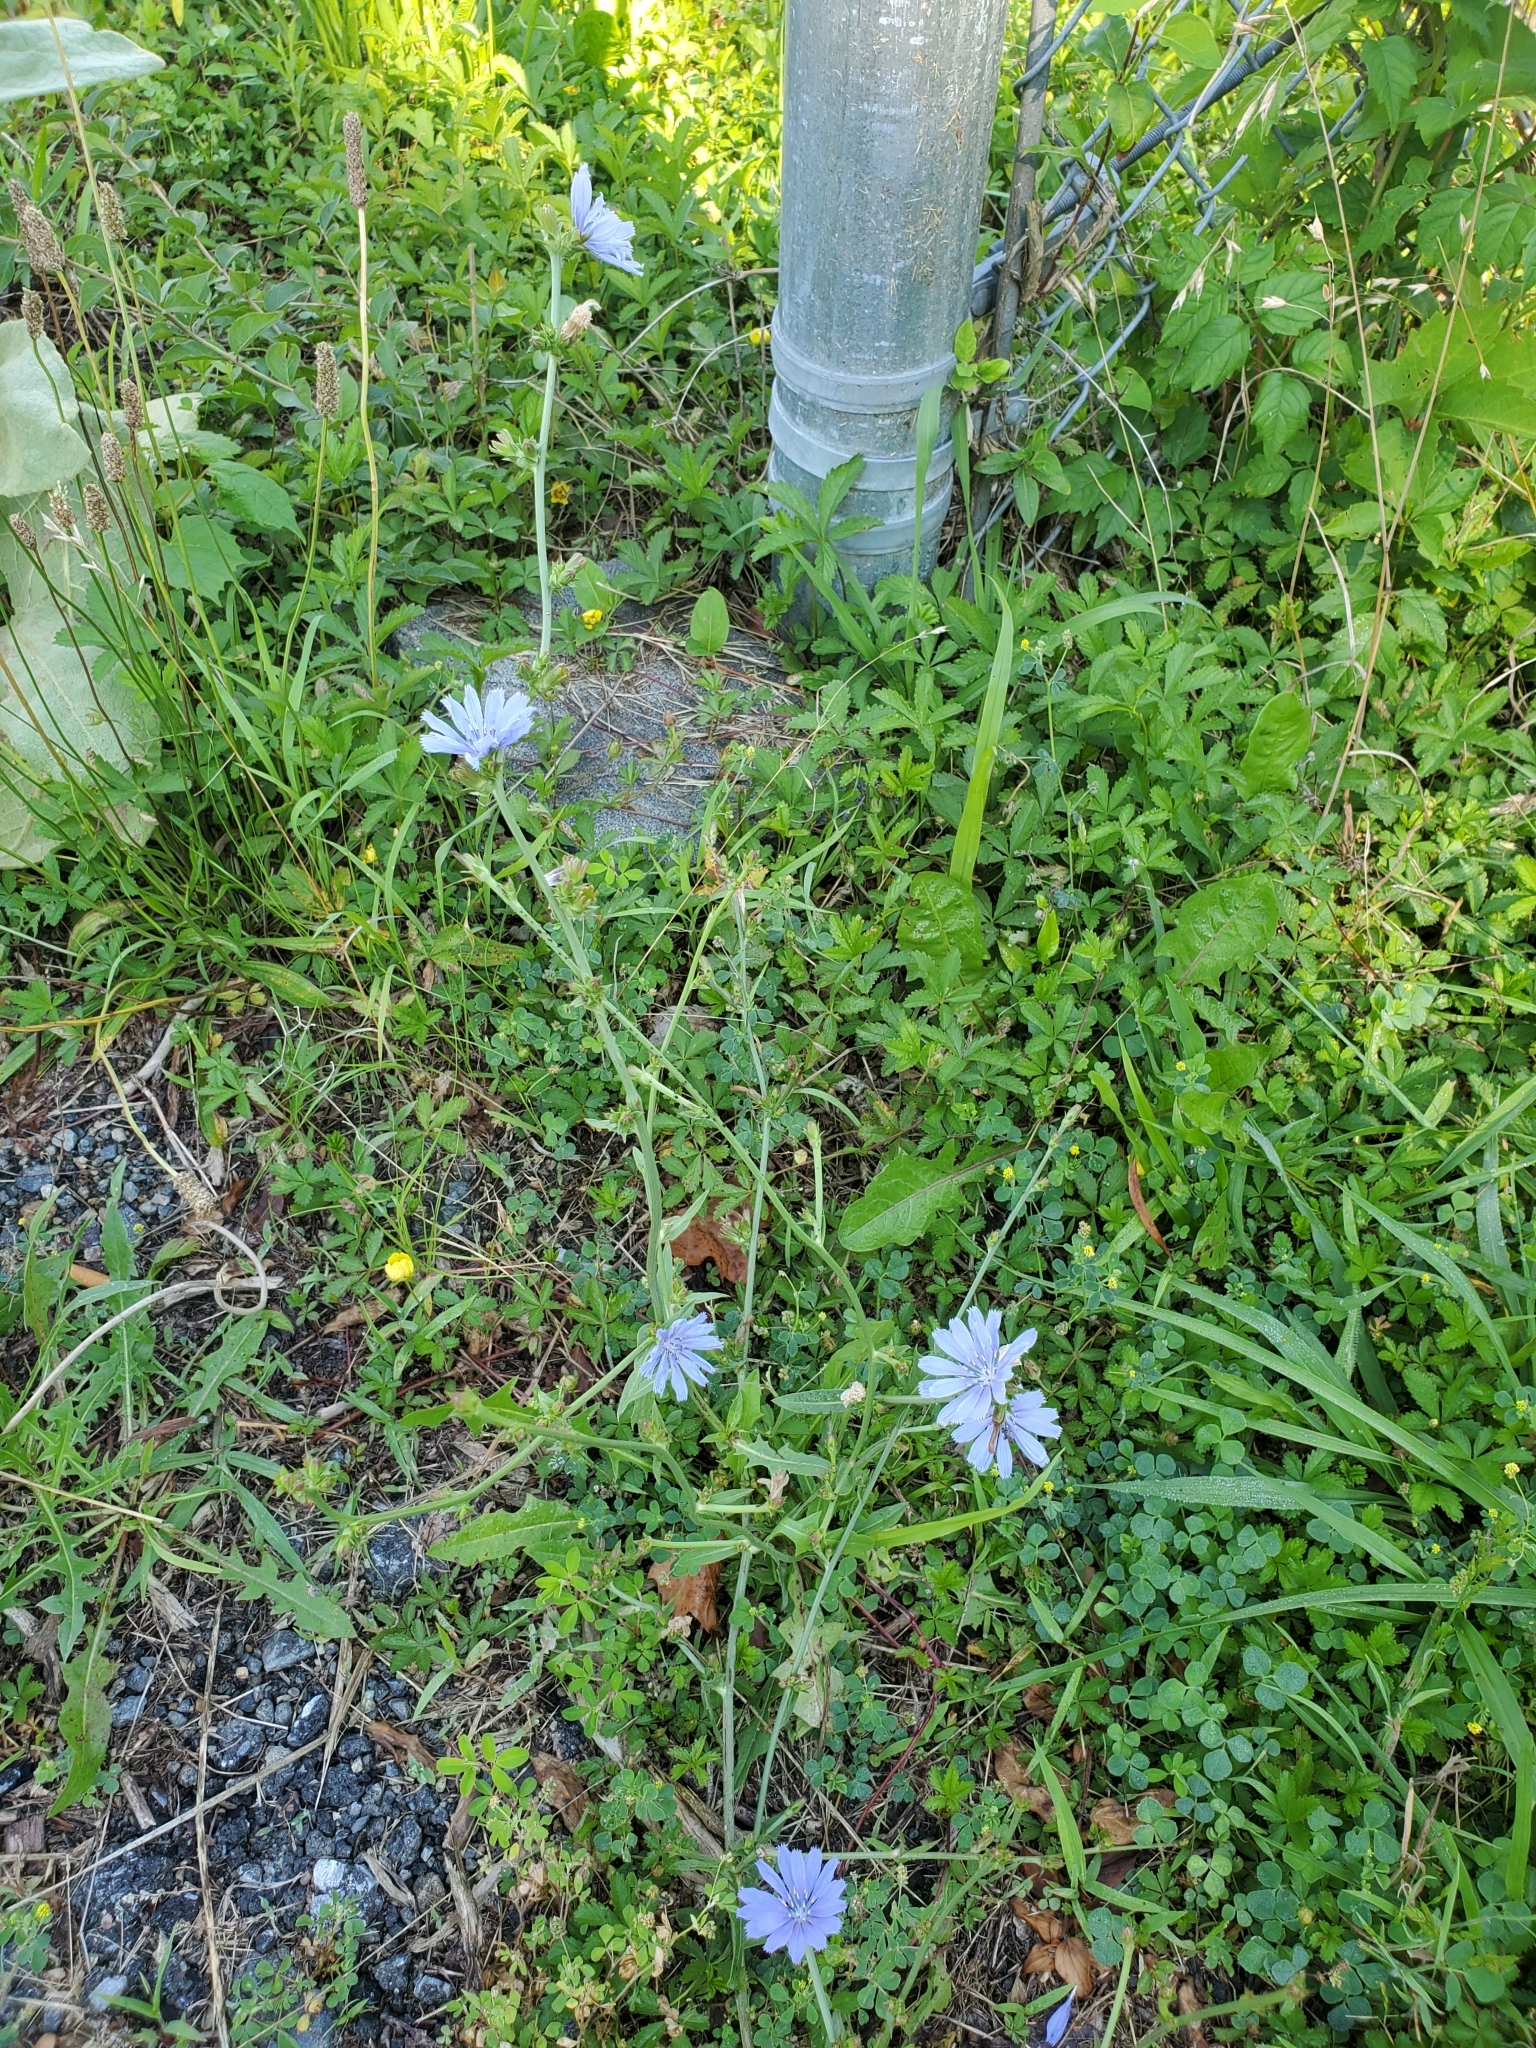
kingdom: Plantae
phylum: Tracheophyta
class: Magnoliopsida
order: Asterales
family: Asteraceae
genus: Cichorium
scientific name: Cichorium intybus
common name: Chicory
